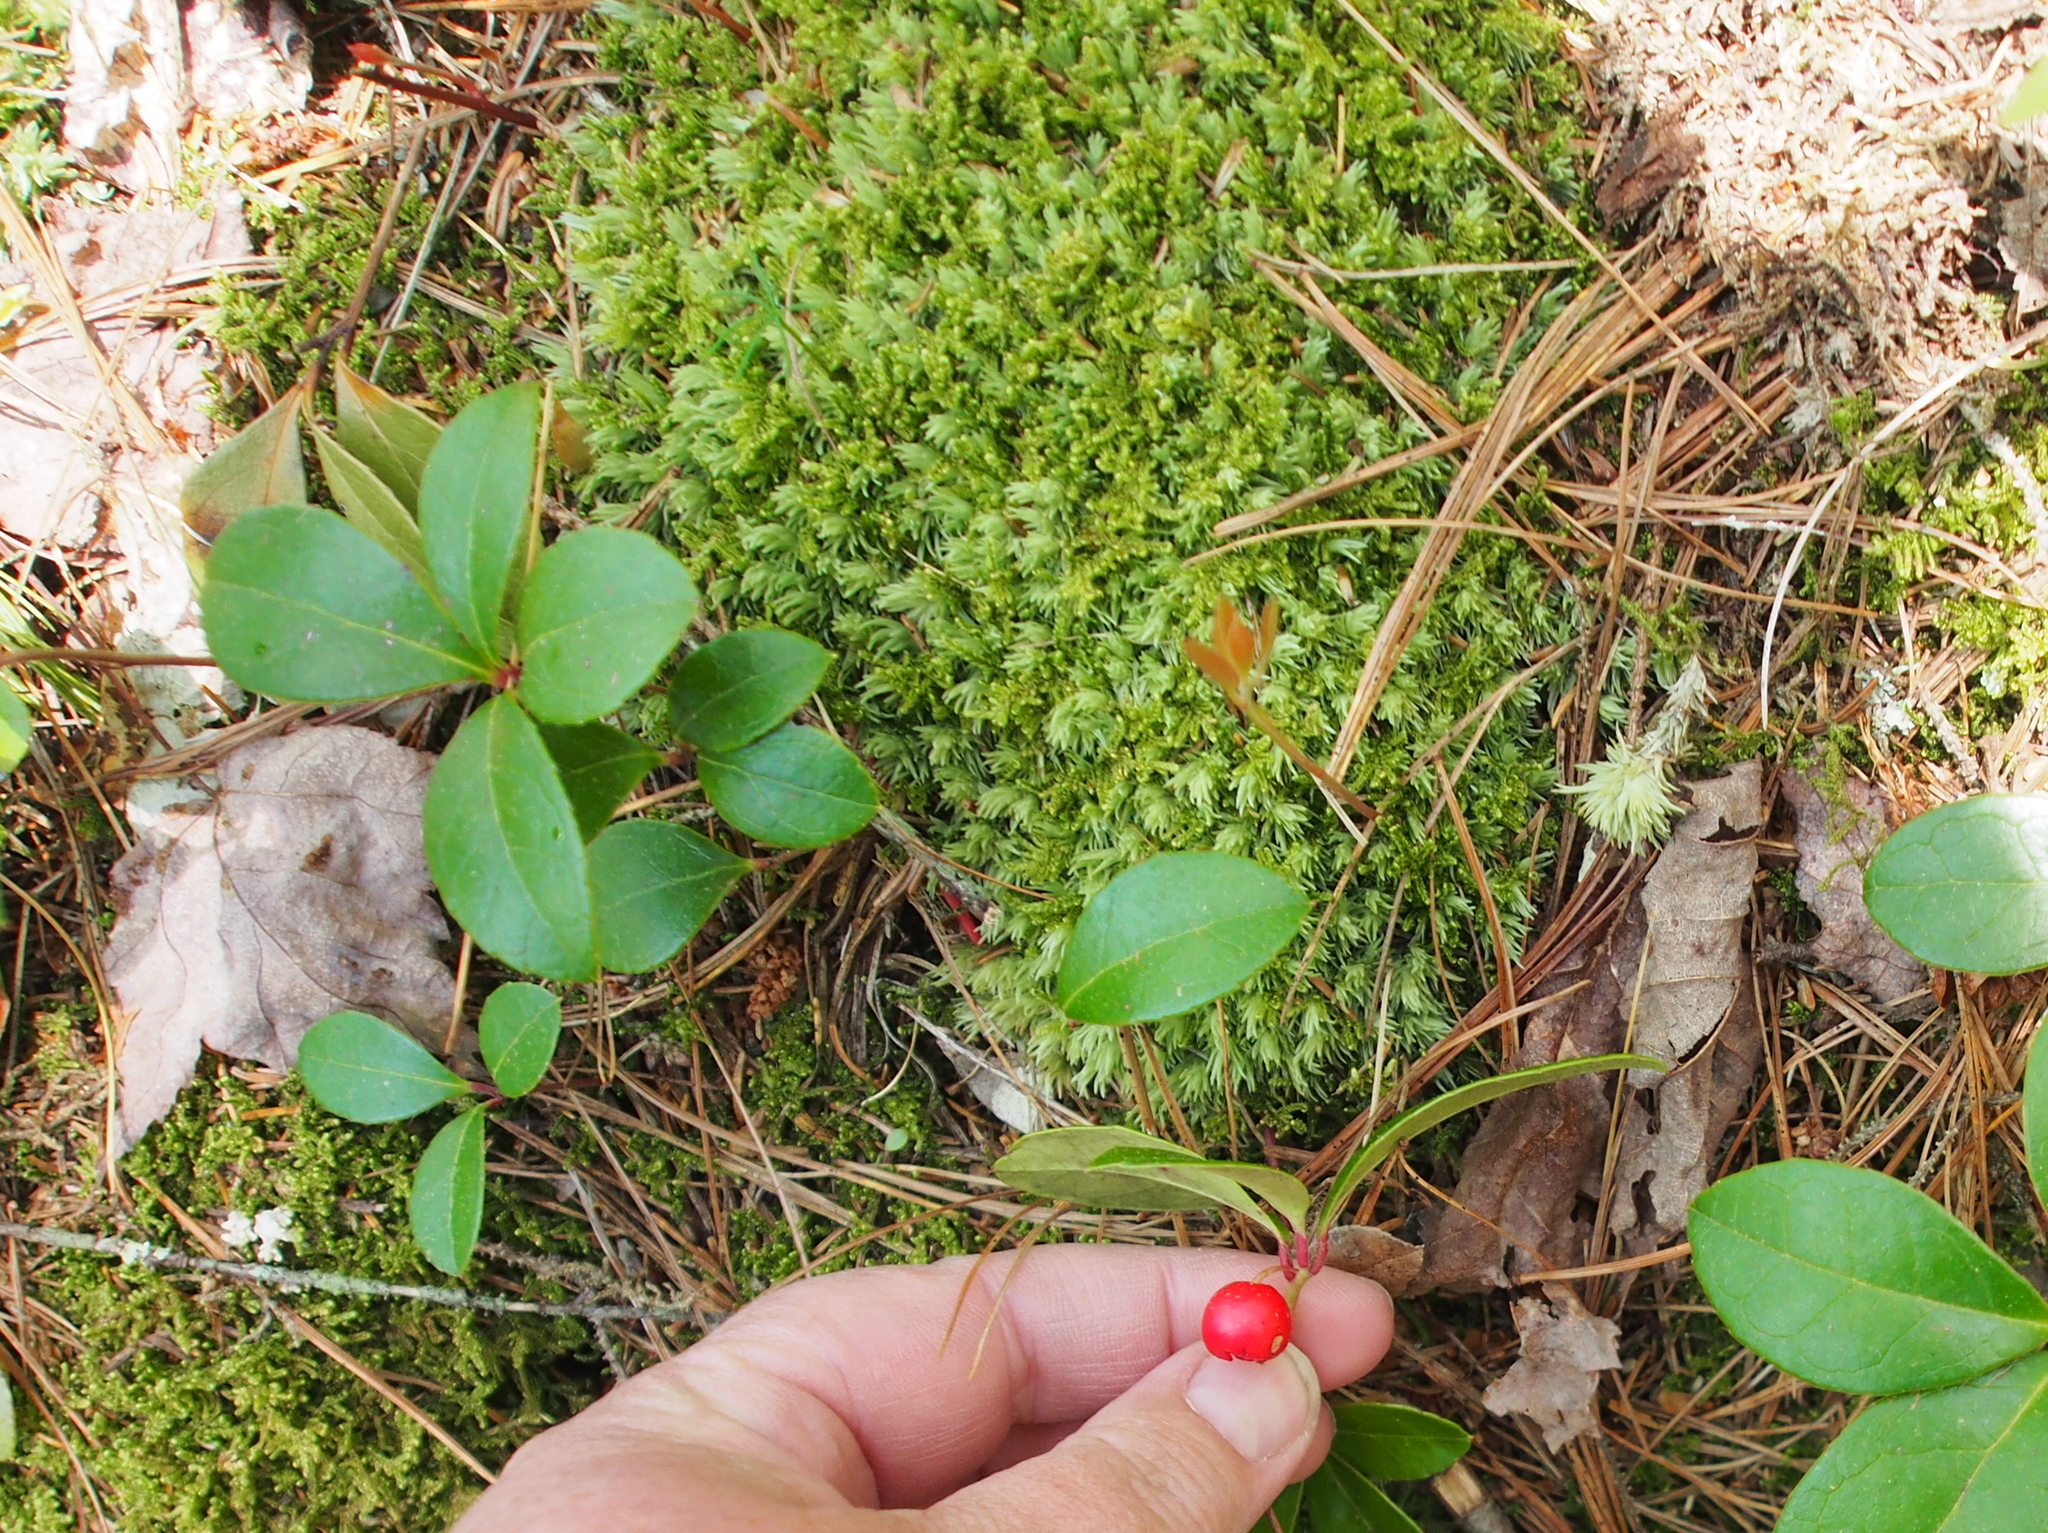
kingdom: Plantae
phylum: Tracheophyta
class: Magnoliopsida
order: Ericales
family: Ericaceae
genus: Gaultheria
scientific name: Gaultheria procumbens
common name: Checkerberry
